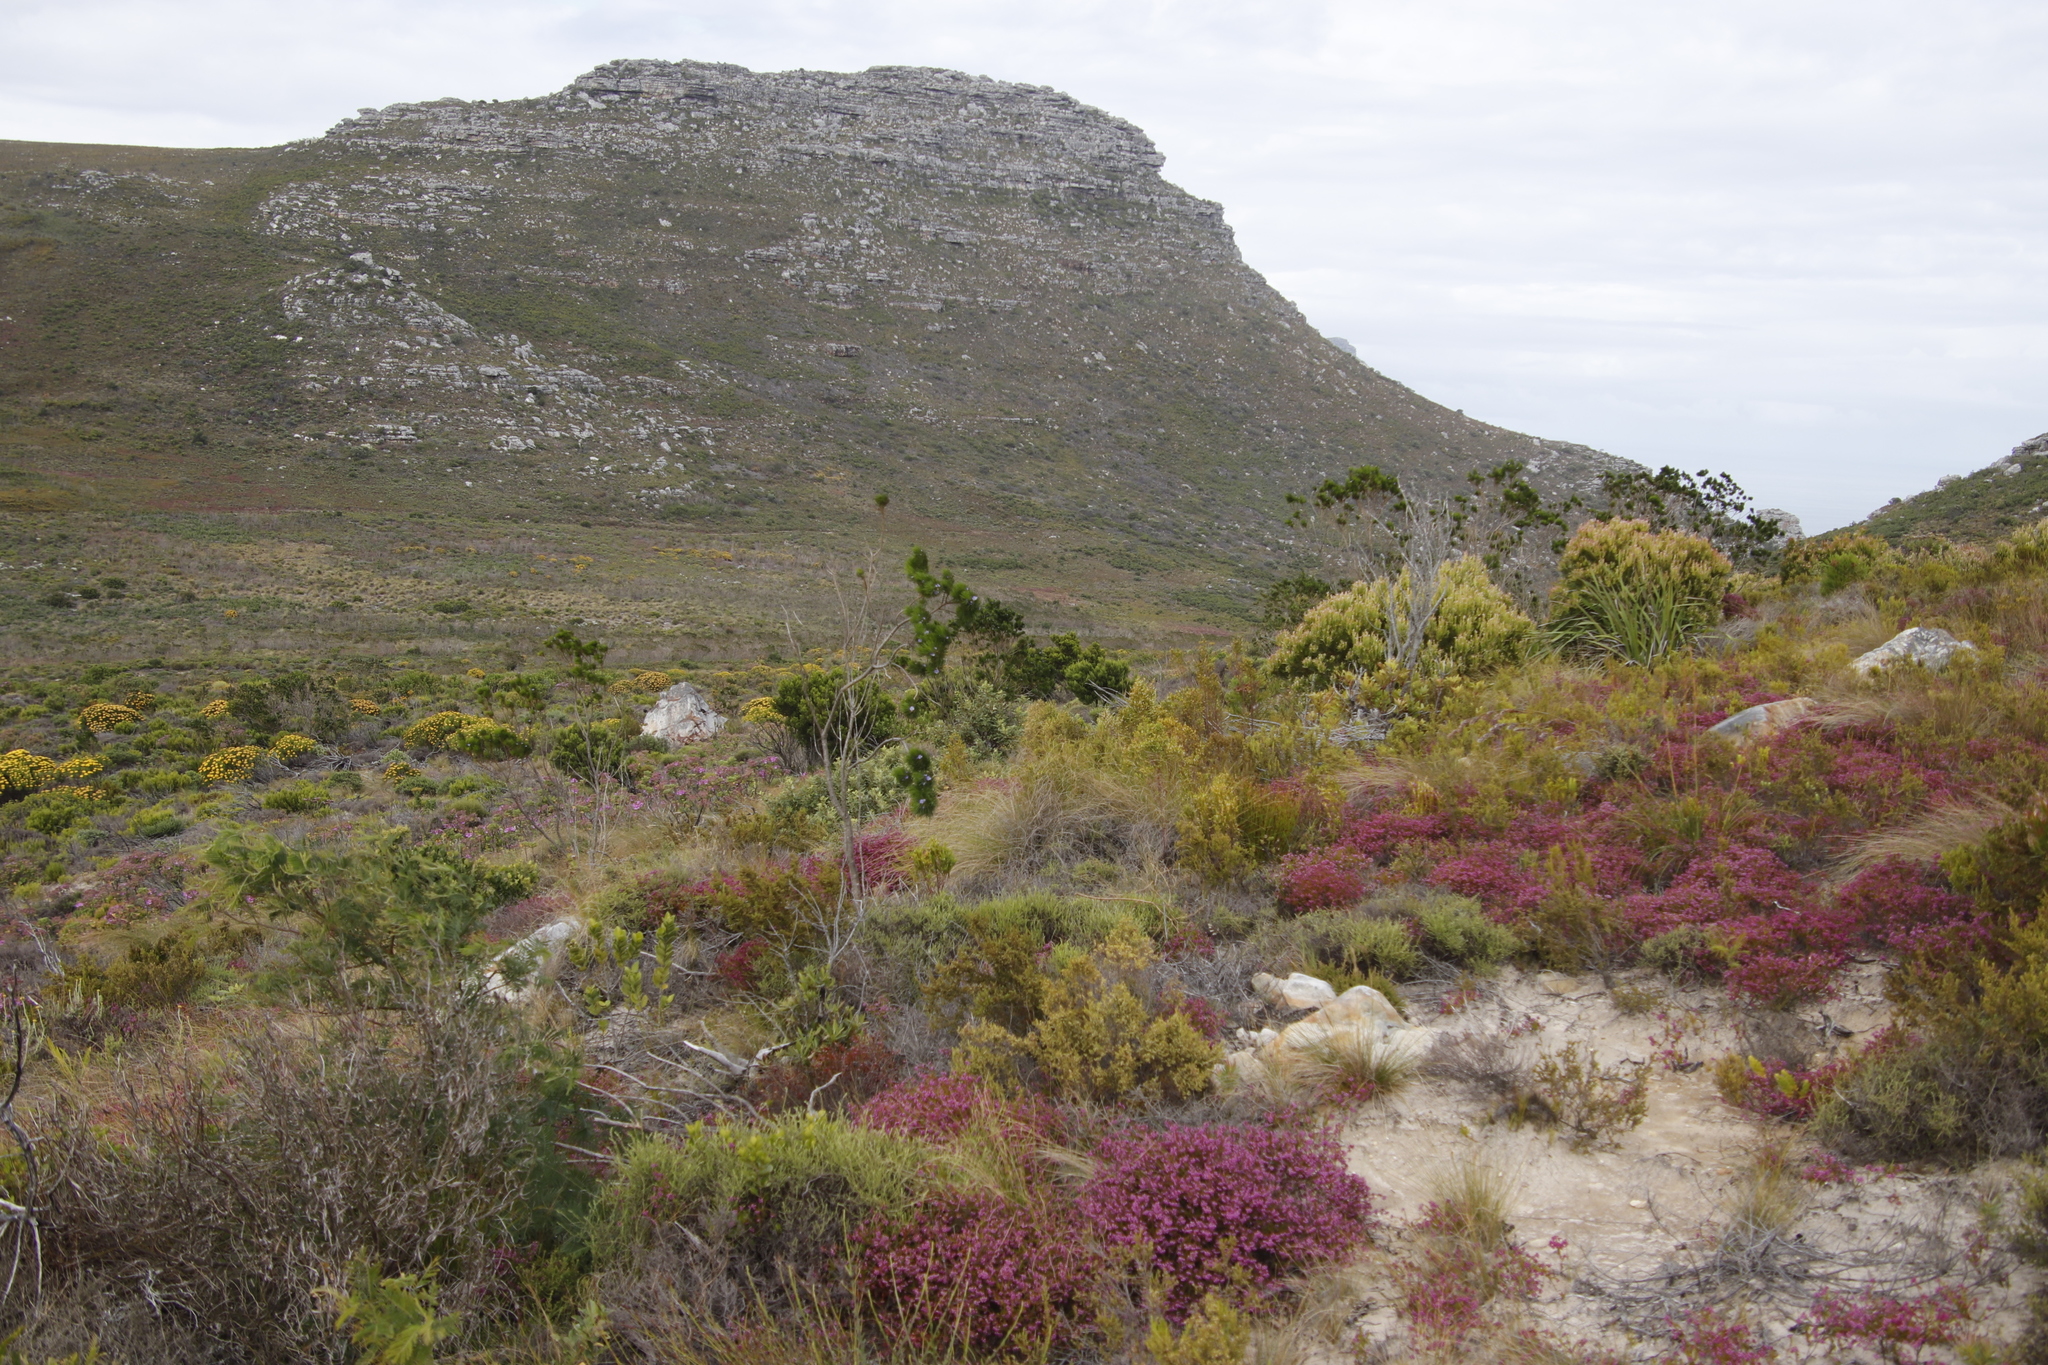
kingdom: Plantae
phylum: Tracheophyta
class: Magnoliopsida
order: Fabales
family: Fabaceae
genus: Psoralea
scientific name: Psoralea pinnata
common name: African scurfpea
